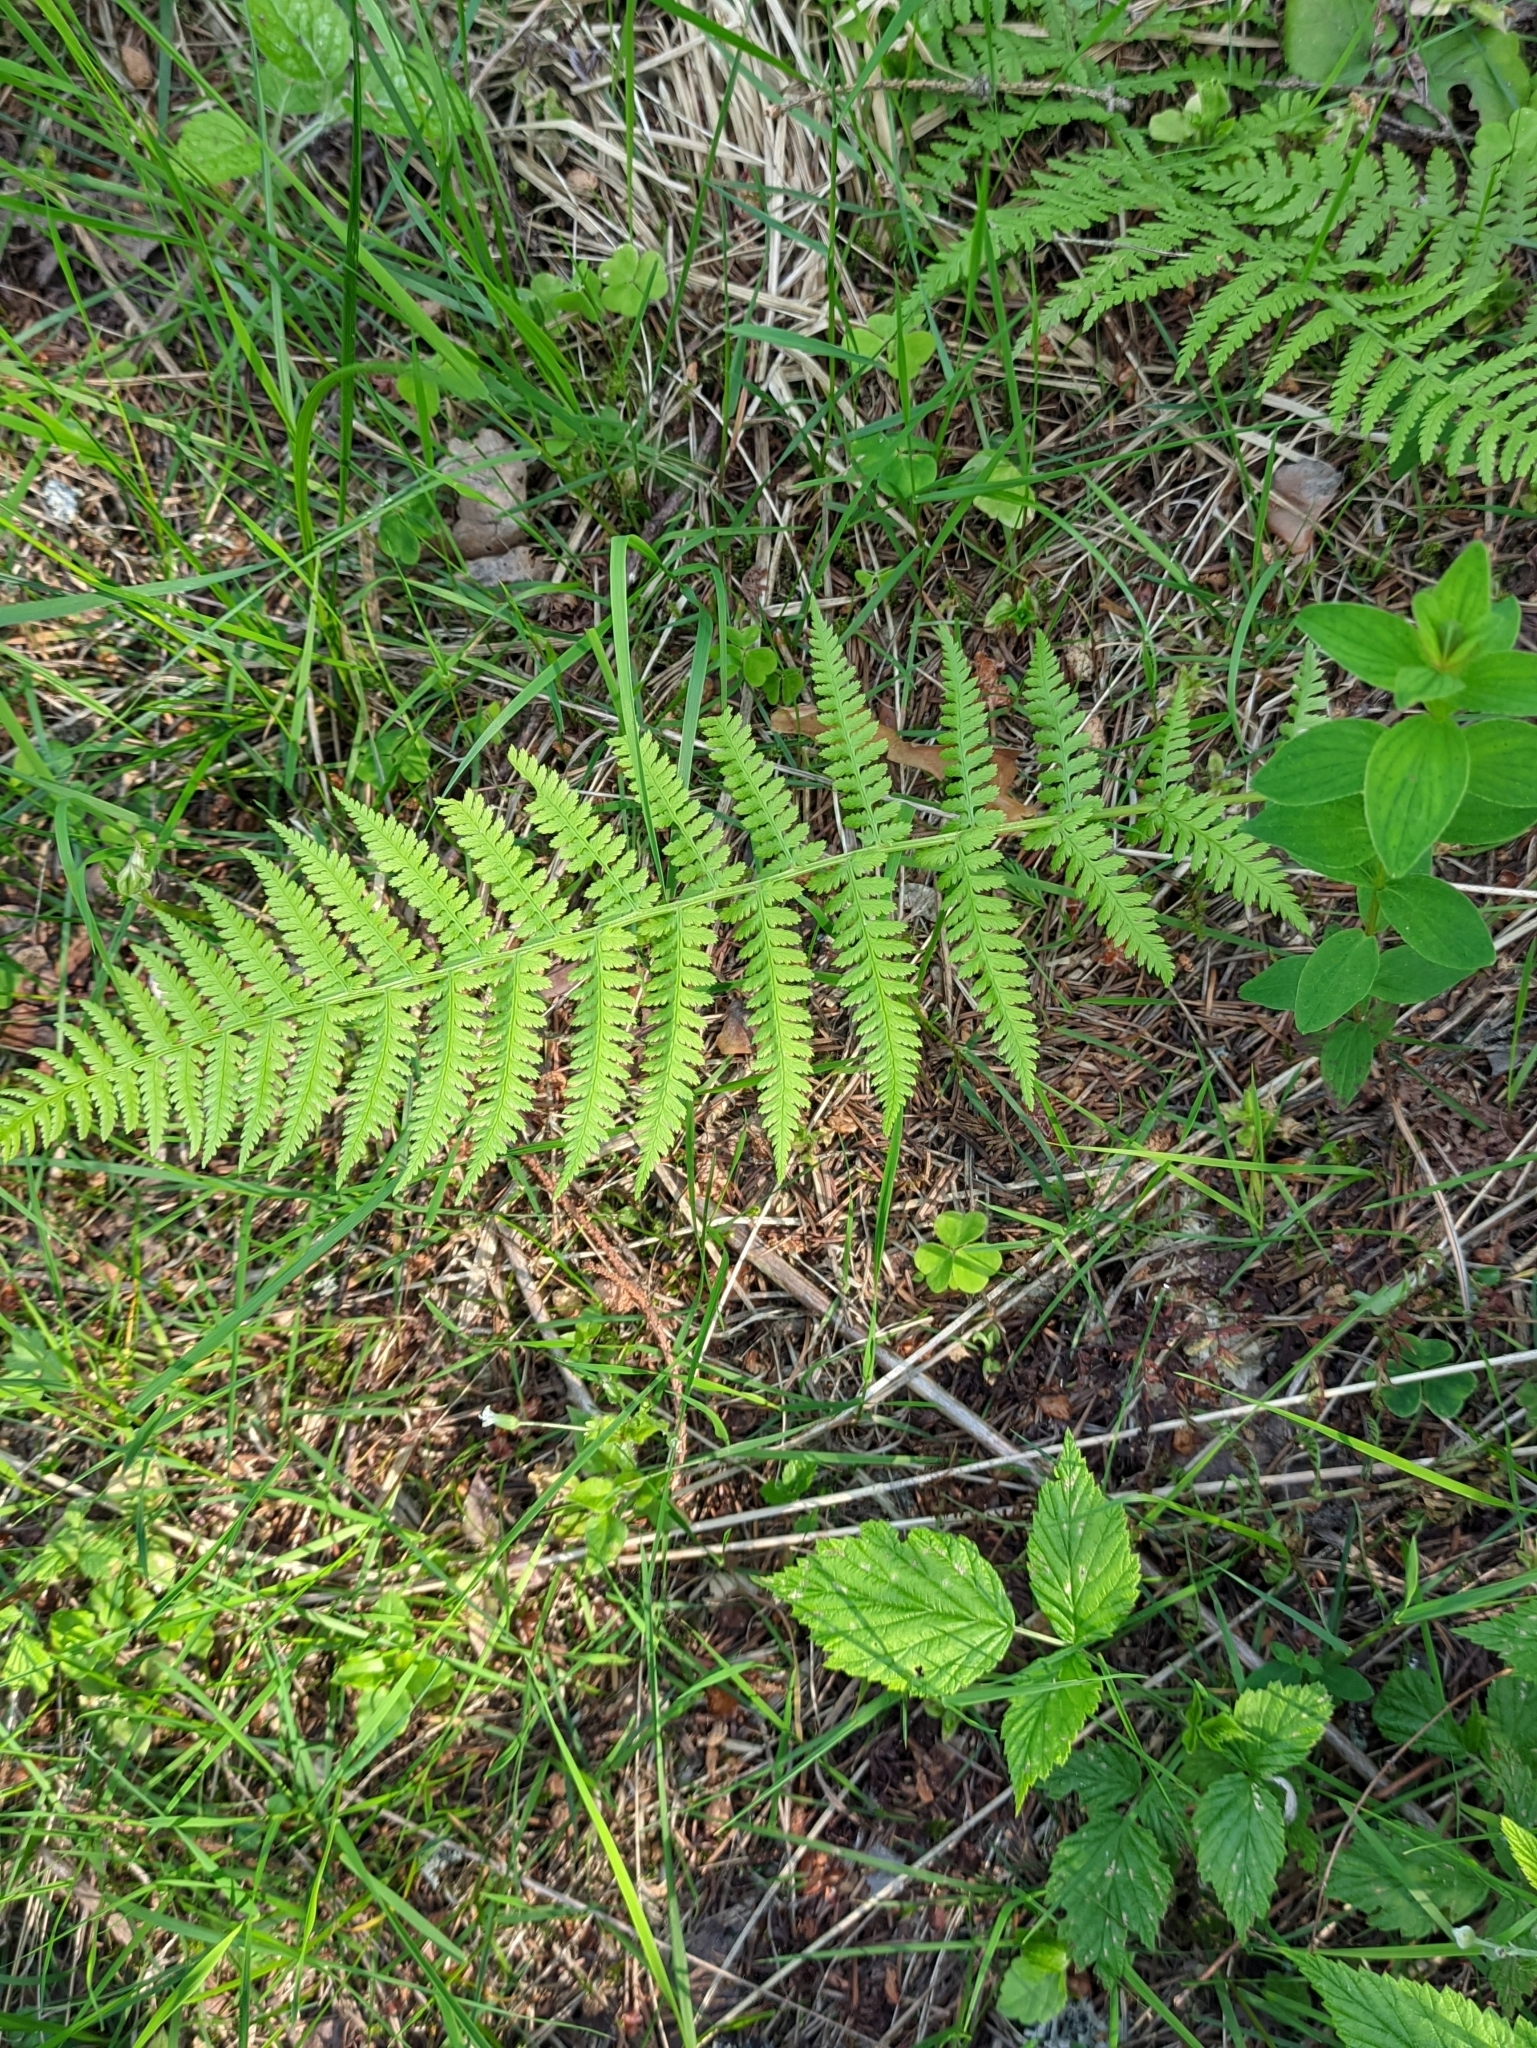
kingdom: Plantae
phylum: Tracheophyta
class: Polypodiopsida
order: Polypodiales
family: Athyriaceae
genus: Athyrium
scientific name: Athyrium filix-femina
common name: Lady fern
